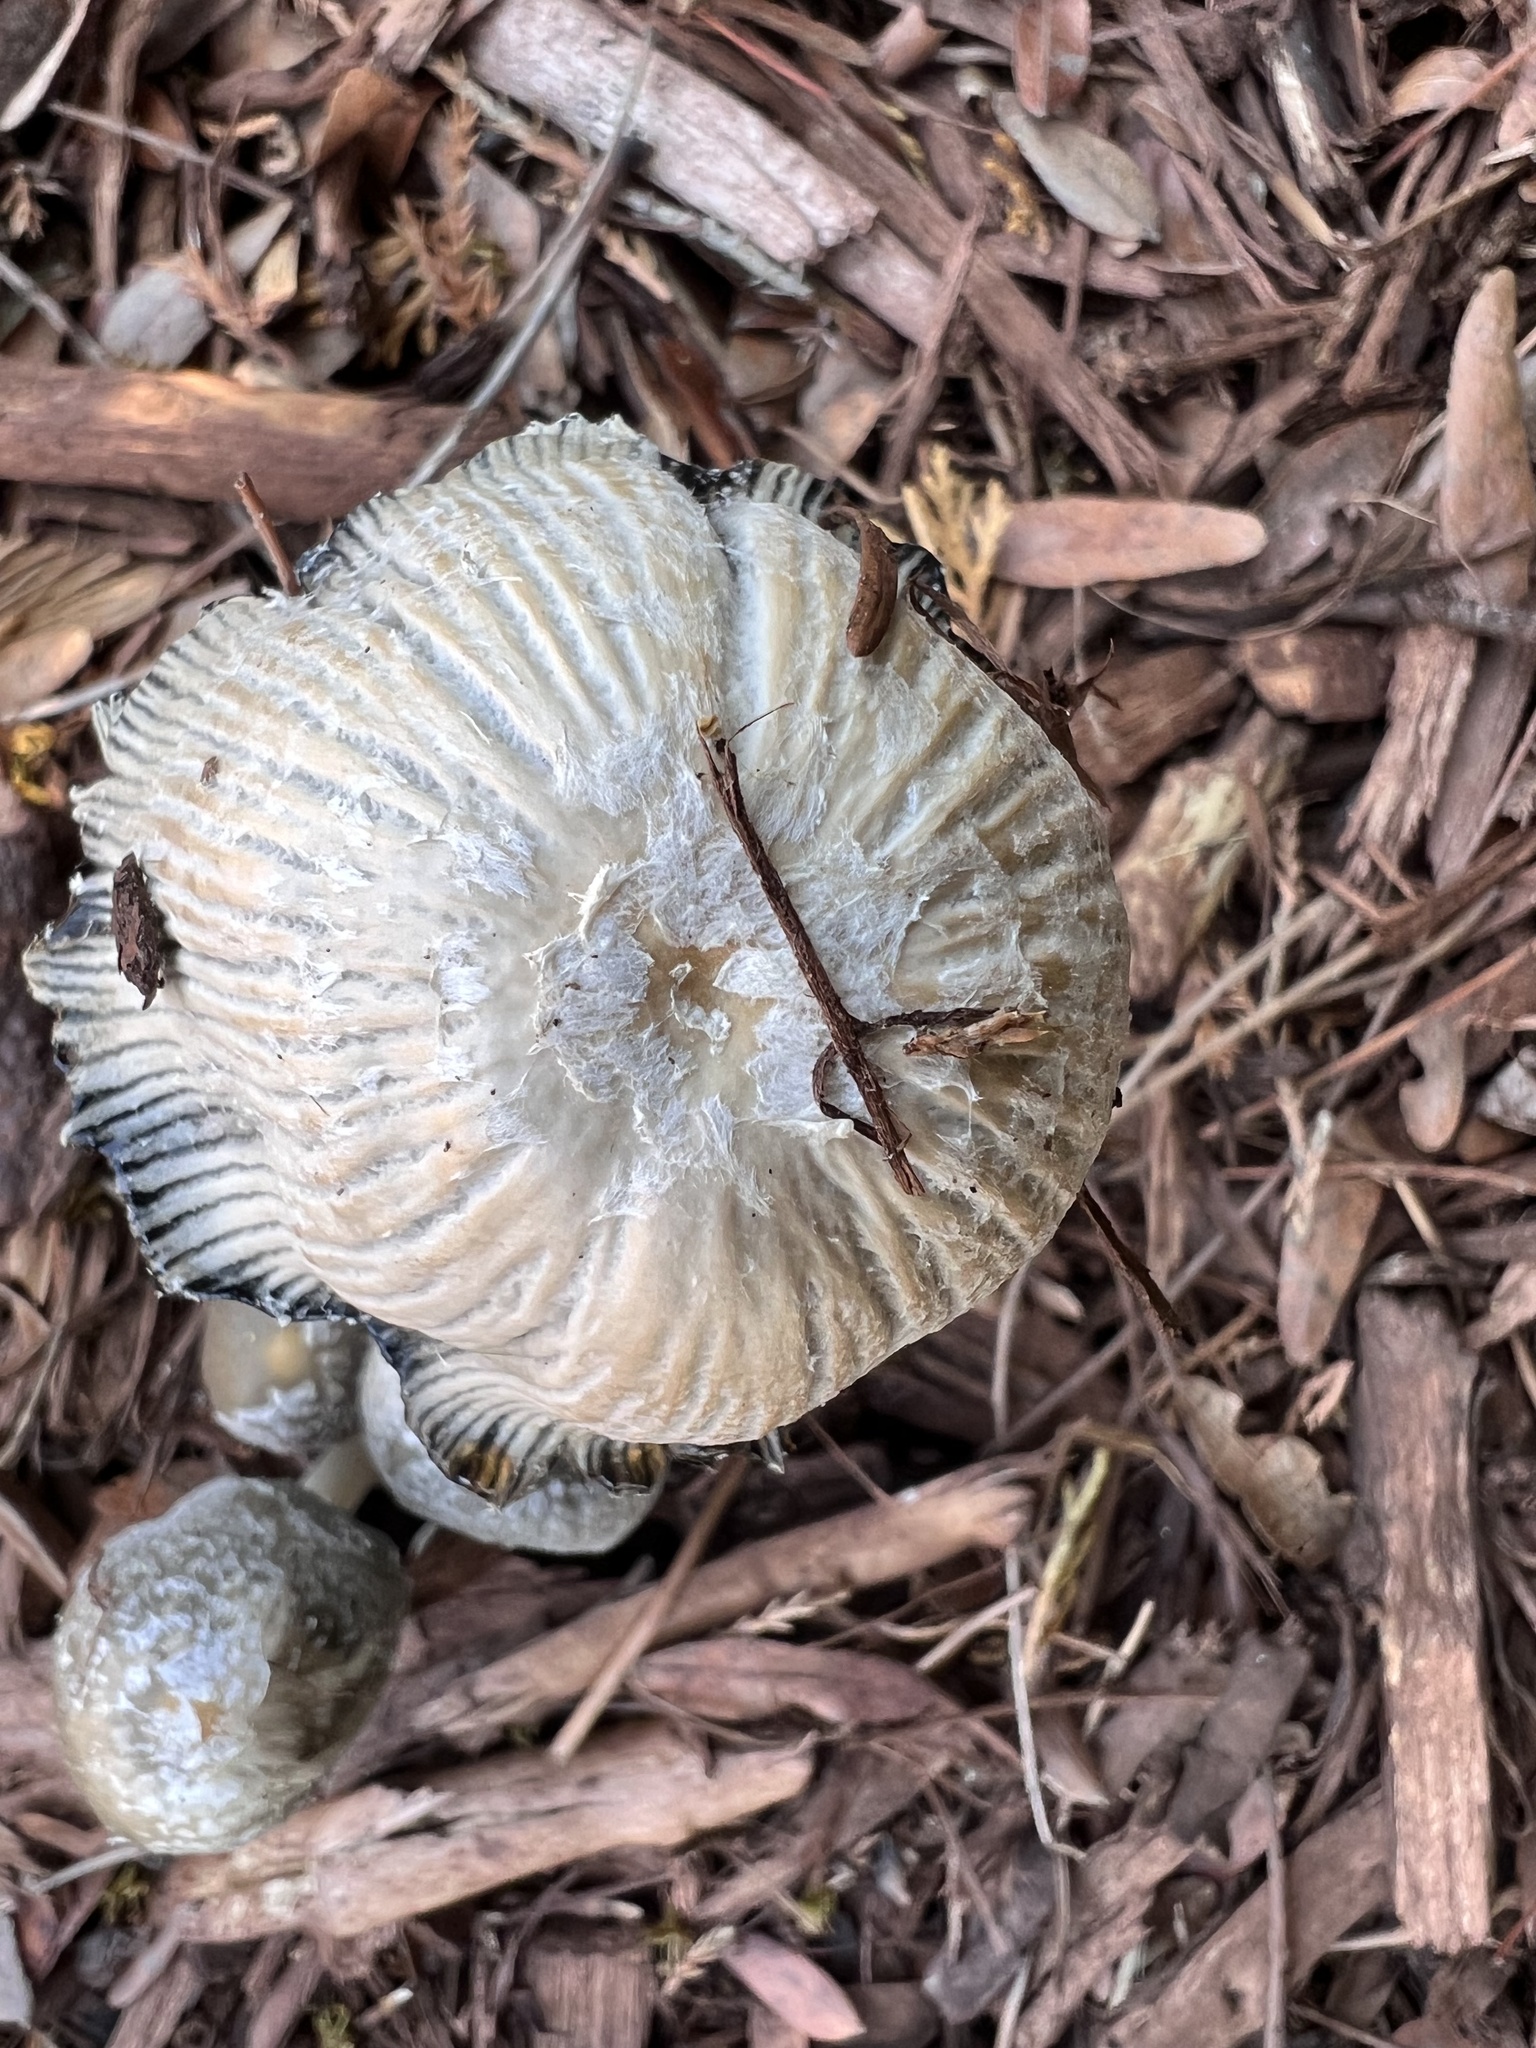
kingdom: Fungi
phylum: Basidiomycota
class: Agaricomycetes
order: Agaricales
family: Psathyrellaceae
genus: Coprinellus
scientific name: Coprinellus flocculosus
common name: Flocculose inkcap
